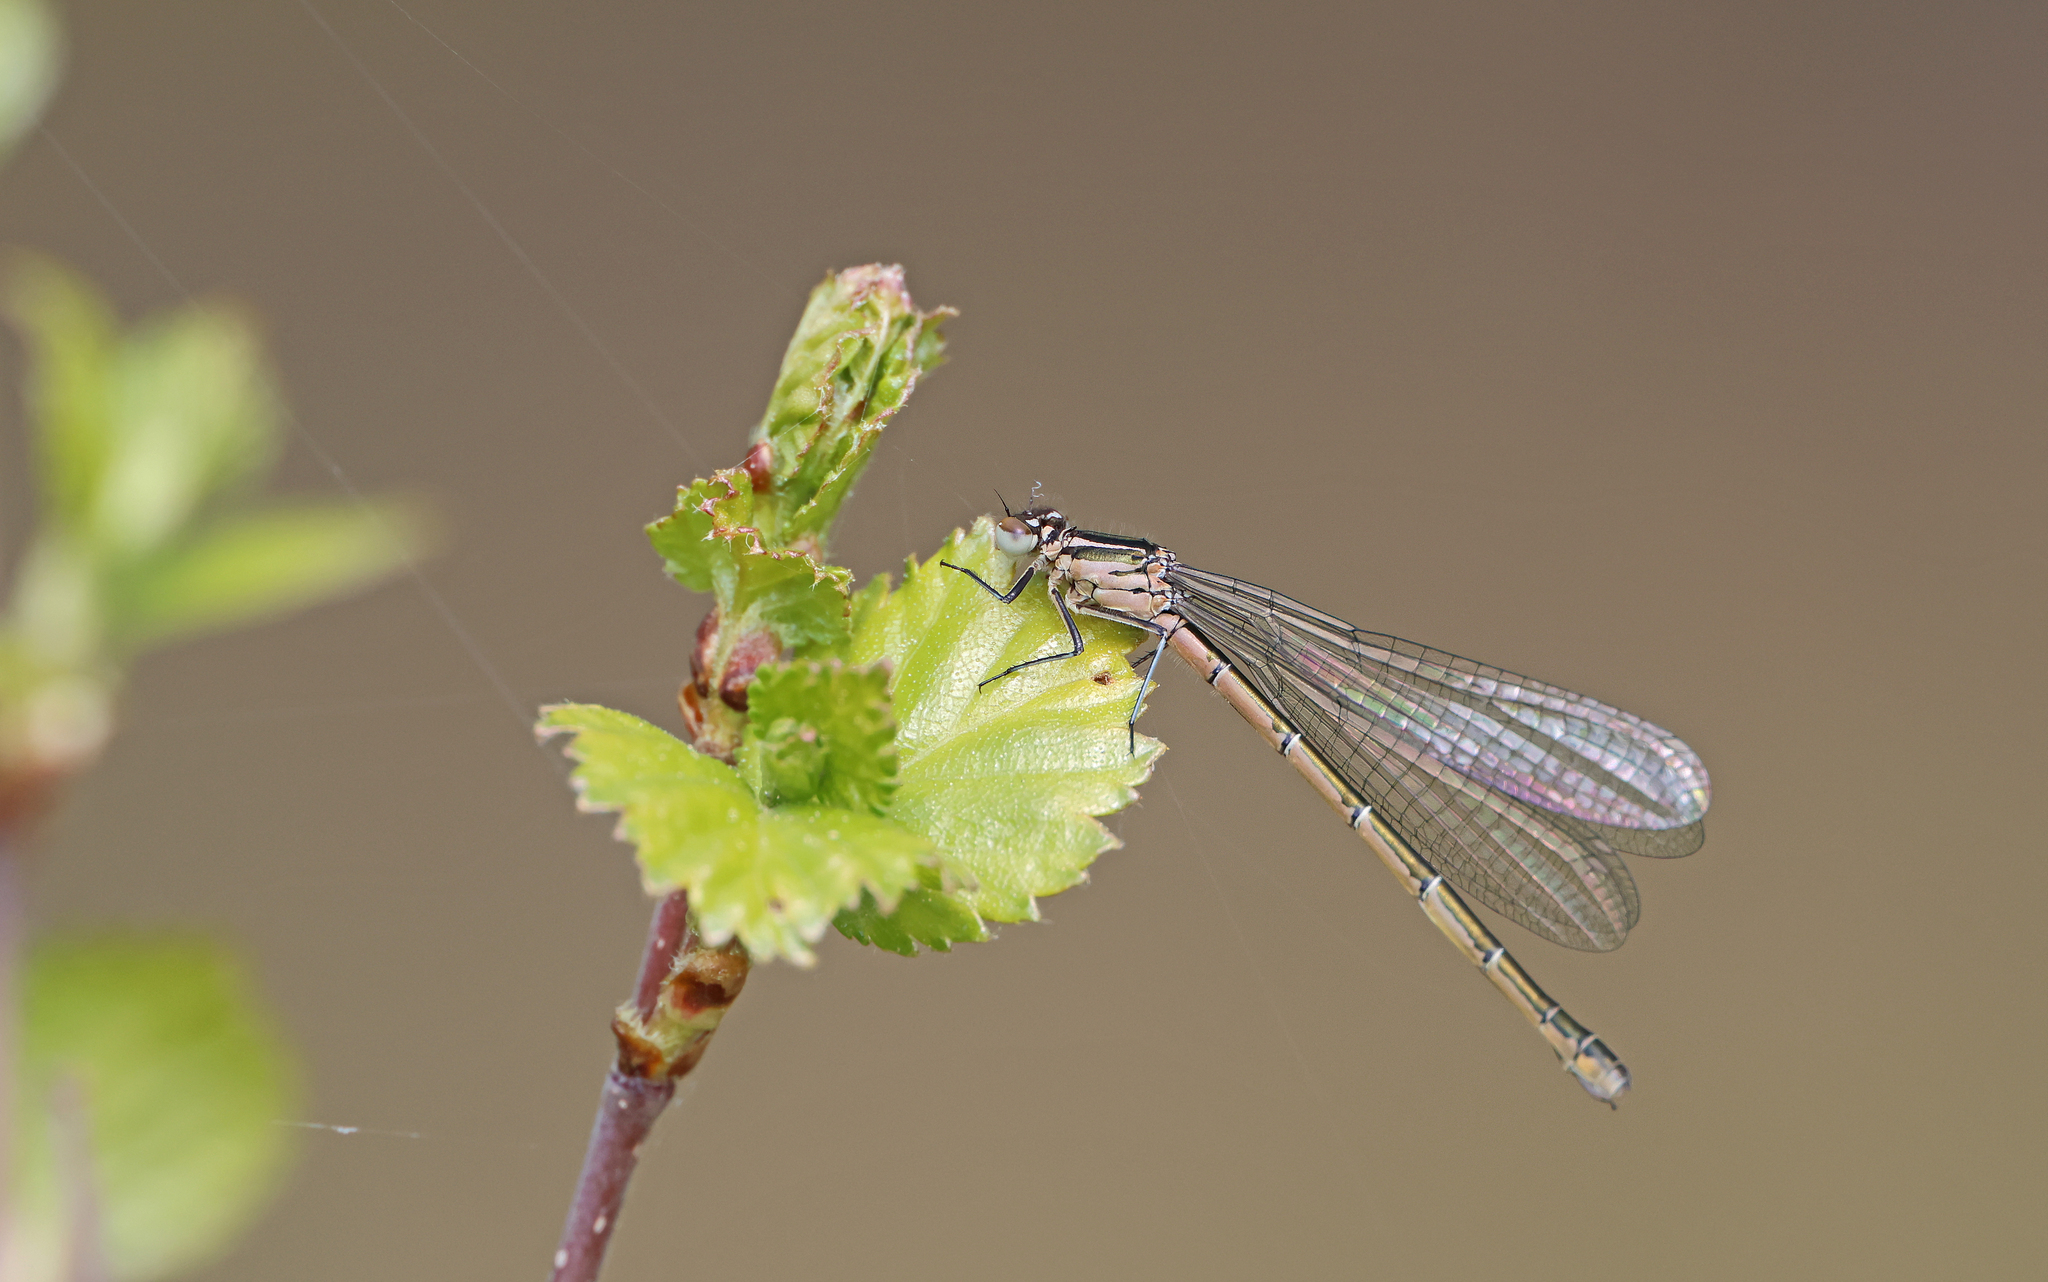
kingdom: Animalia
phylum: Arthropoda
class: Insecta
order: Odonata
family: Coenagrionidae
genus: Coenagrion
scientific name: Coenagrion hastulatum
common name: Spearhead bluet
